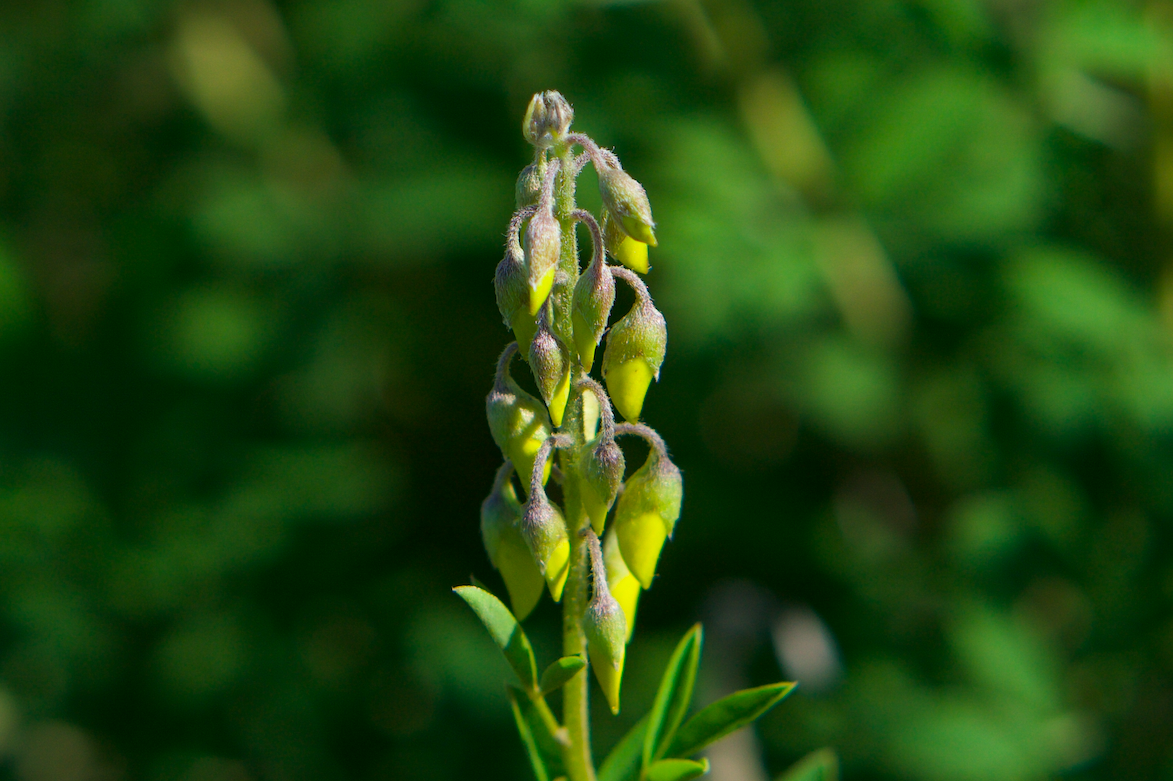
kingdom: Plantae
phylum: Tracheophyta
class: Magnoliopsida
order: Fabales
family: Fabaceae
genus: Cytisus
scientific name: Cytisus nigricans
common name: Black broom
